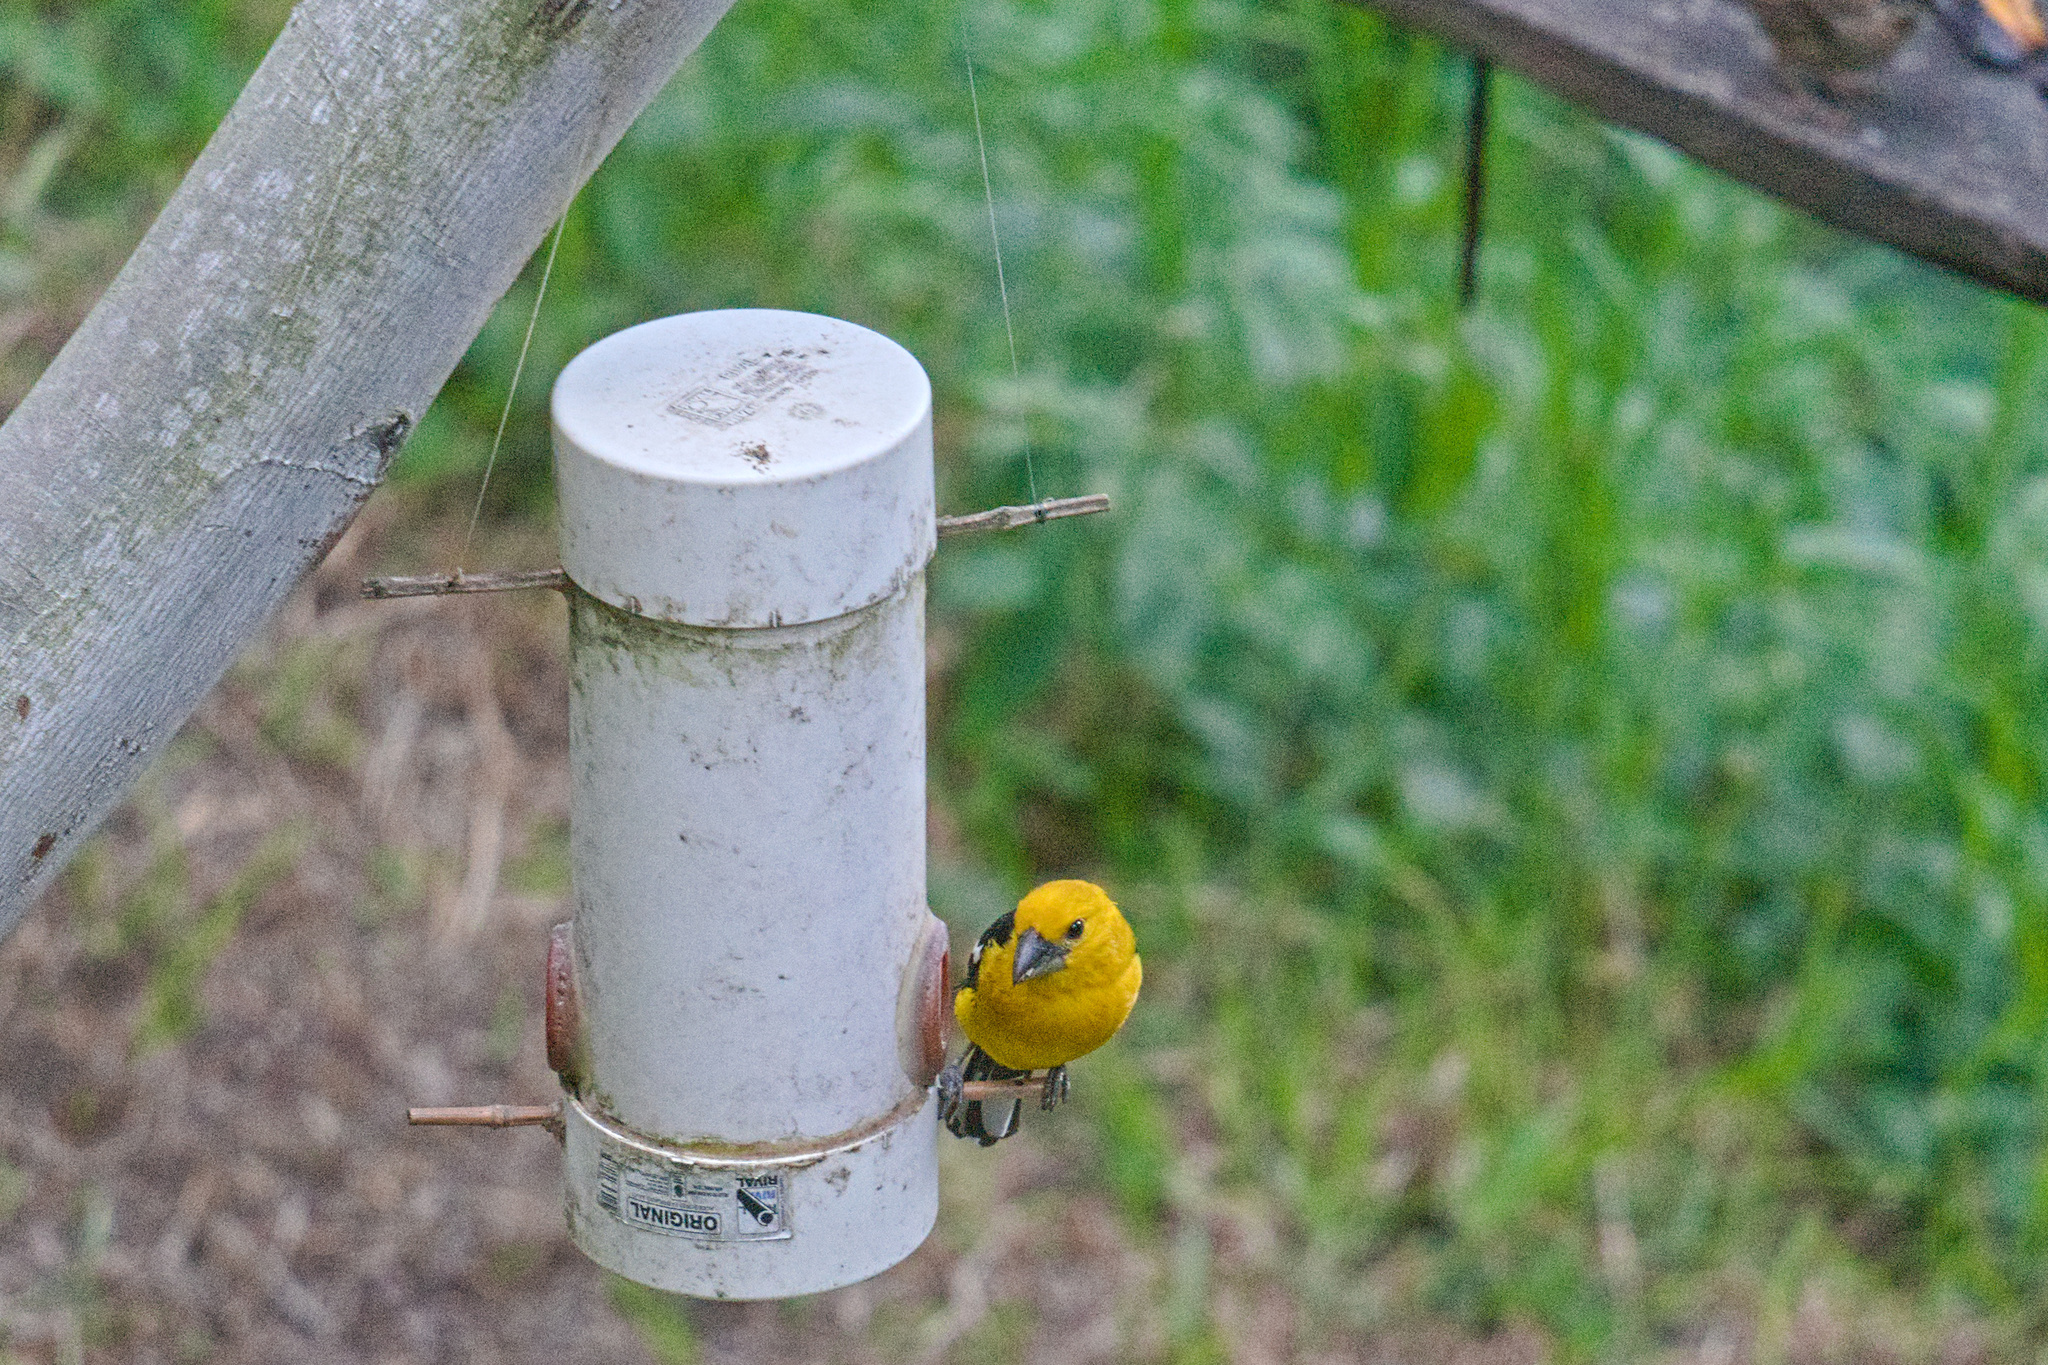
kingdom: Animalia
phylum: Chordata
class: Aves
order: Passeriformes
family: Cardinalidae
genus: Pheucticus
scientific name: Pheucticus chrysogaster
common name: Golden grosbeak
